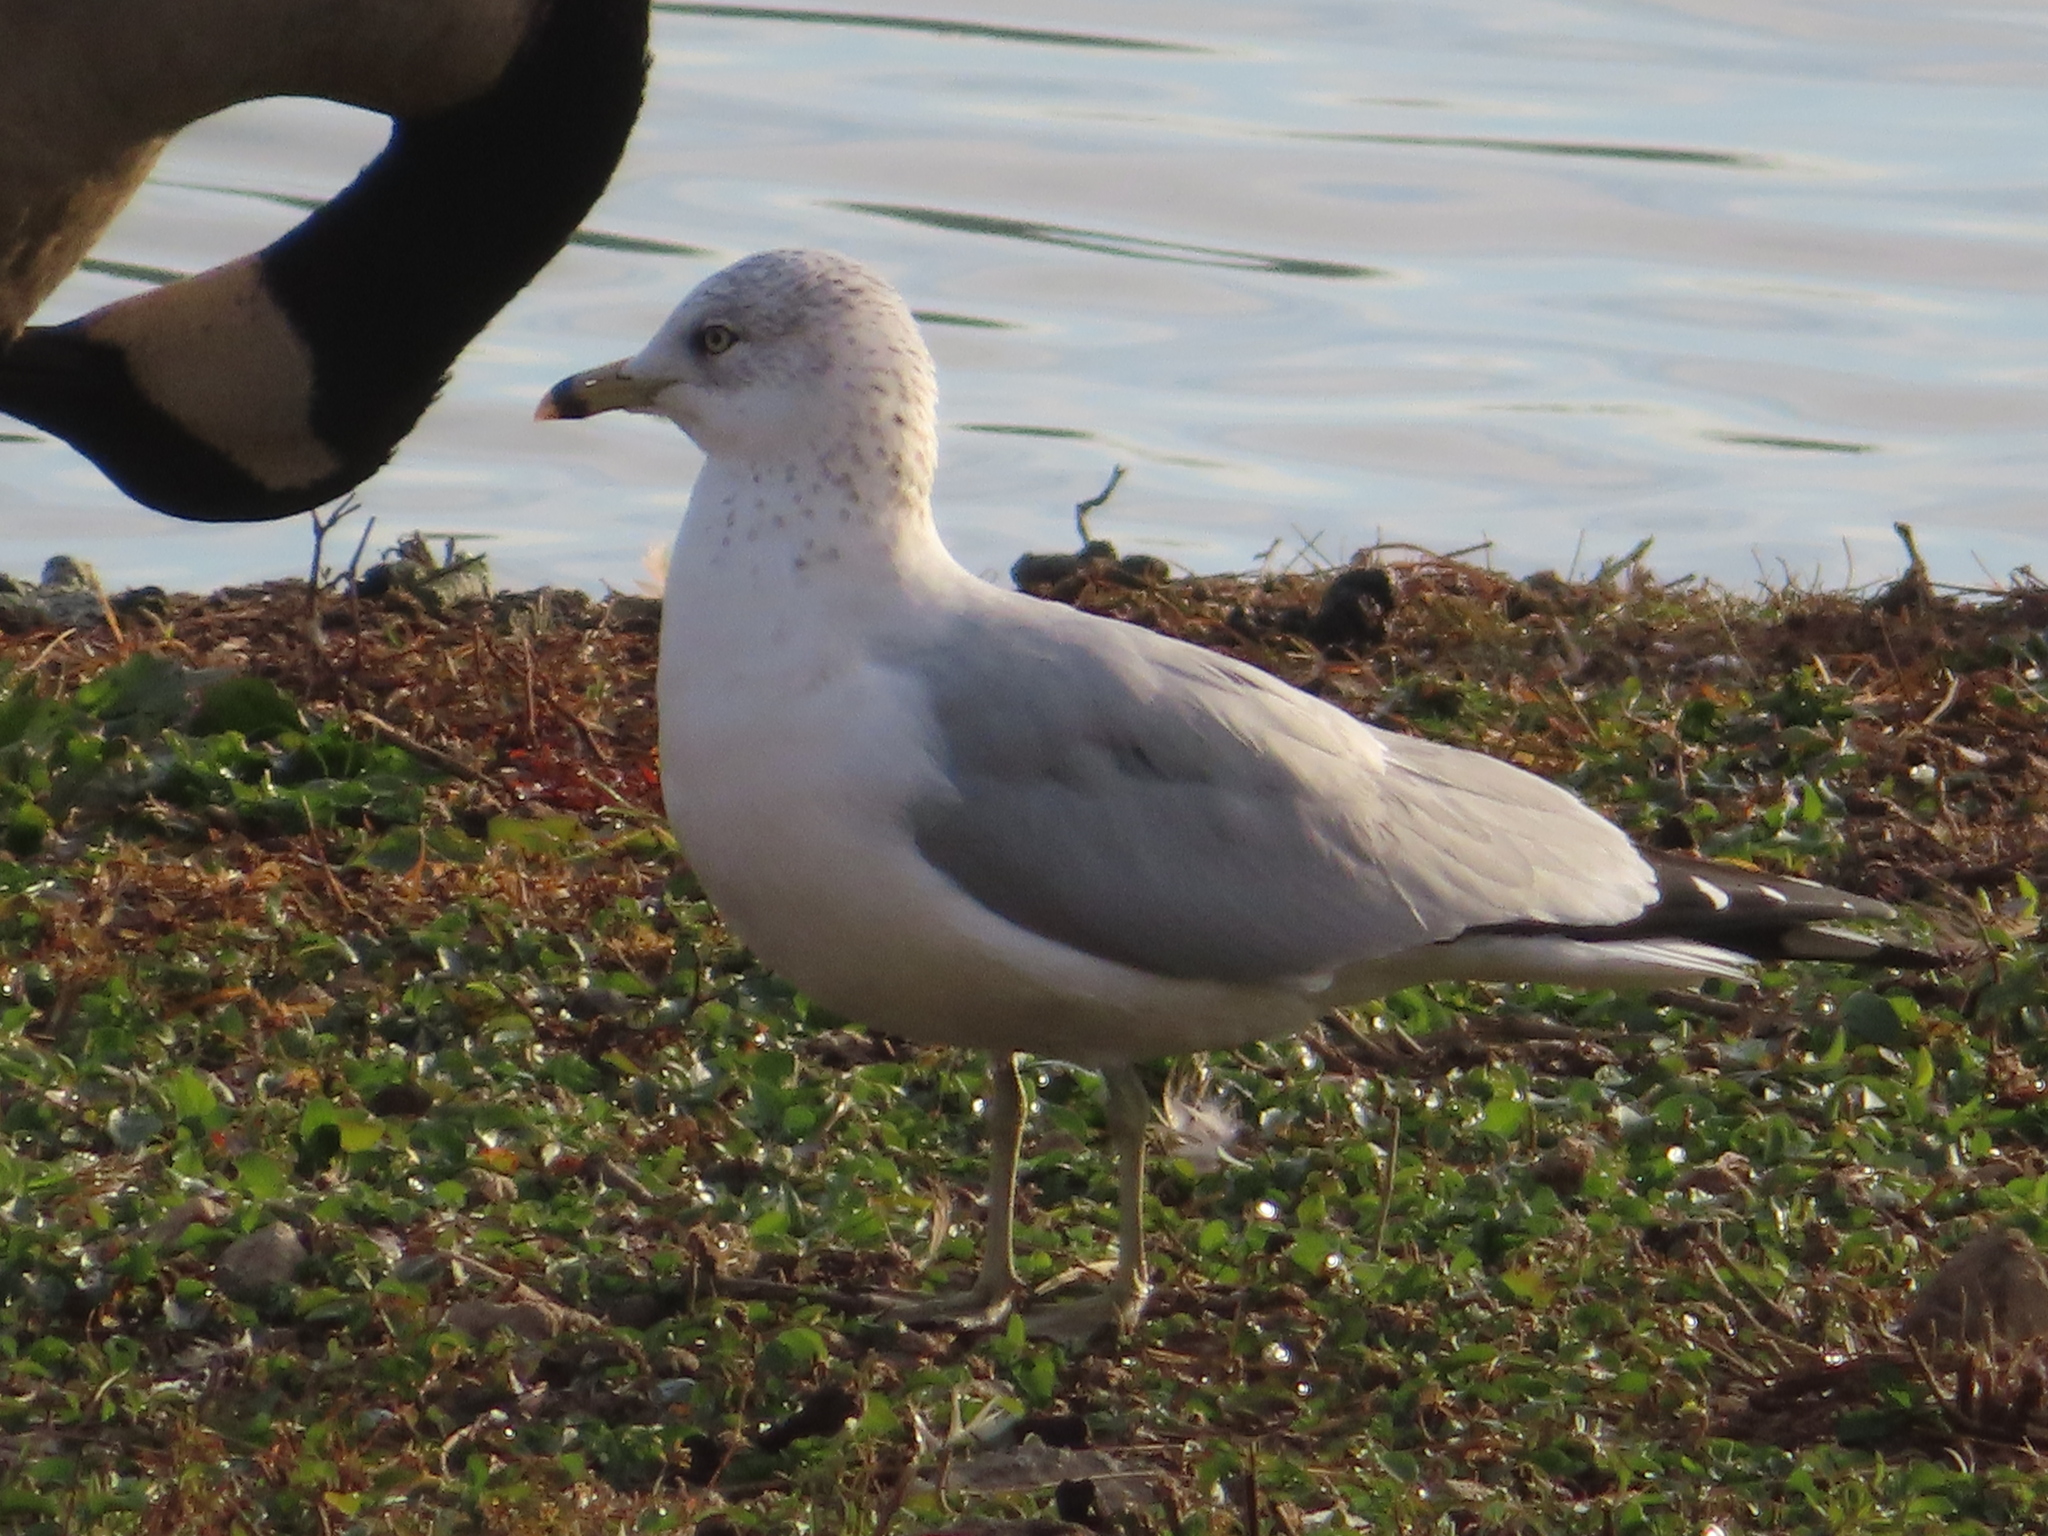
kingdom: Animalia
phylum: Chordata
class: Aves
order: Charadriiformes
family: Laridae
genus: Larus
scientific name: Larus delawarensis
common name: Ring-billed gull
